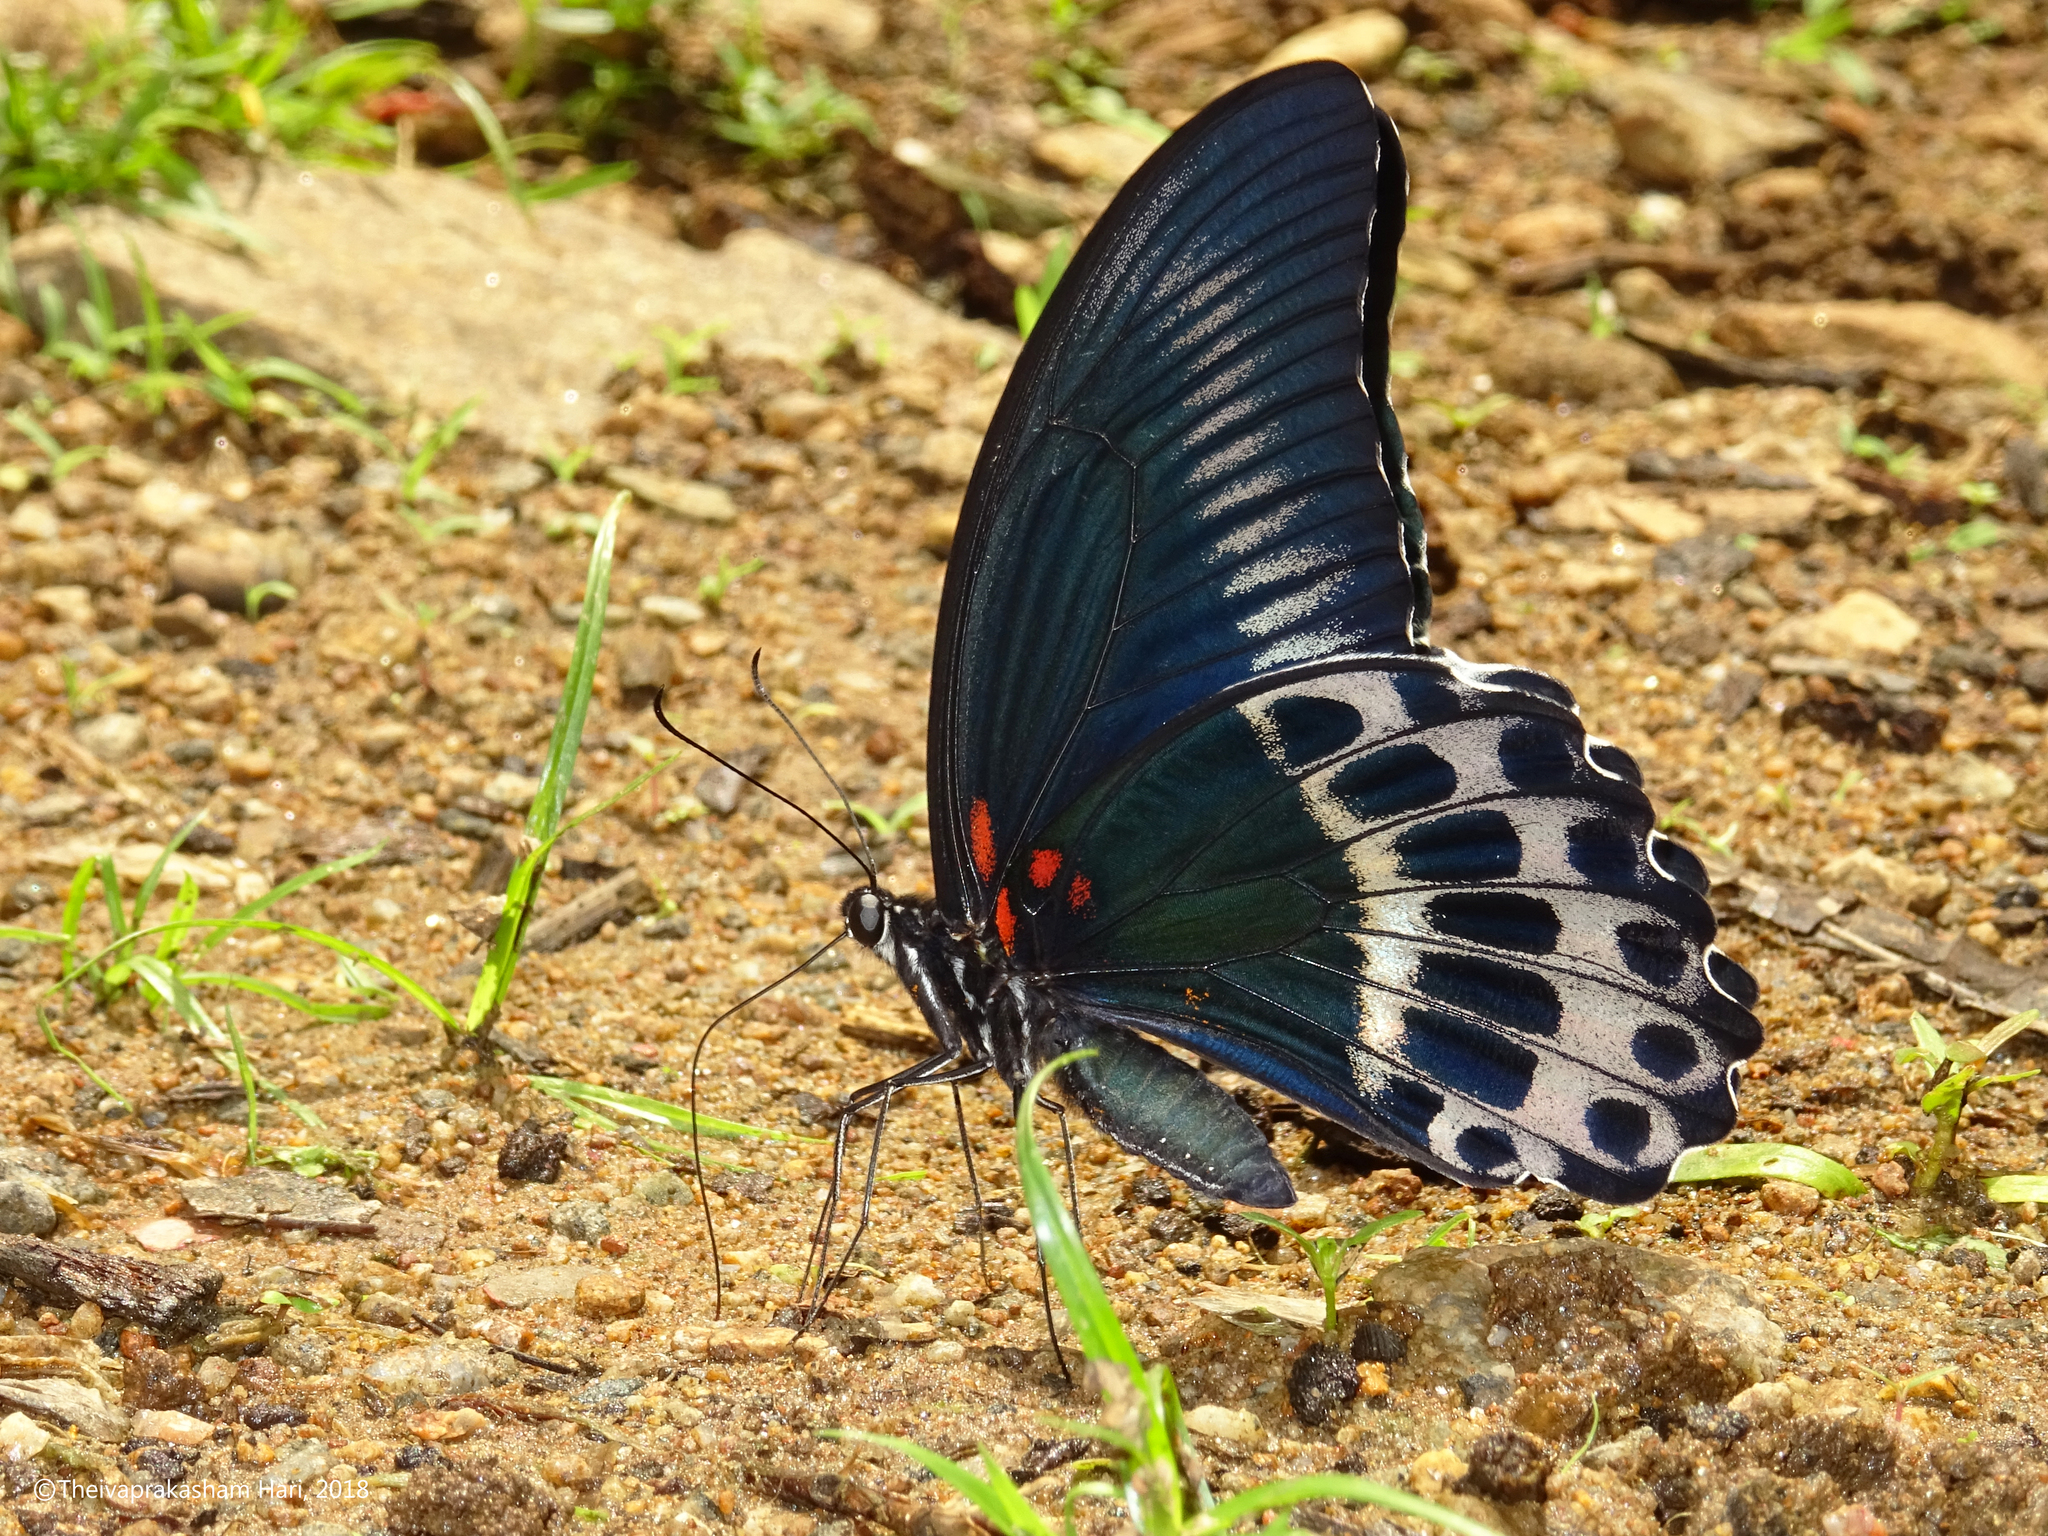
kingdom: Animalia
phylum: Arthropoda
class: Insecta
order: Lepidoptera
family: Papilionidae
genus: Papilio
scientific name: Papilio memnon
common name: Great mormon
